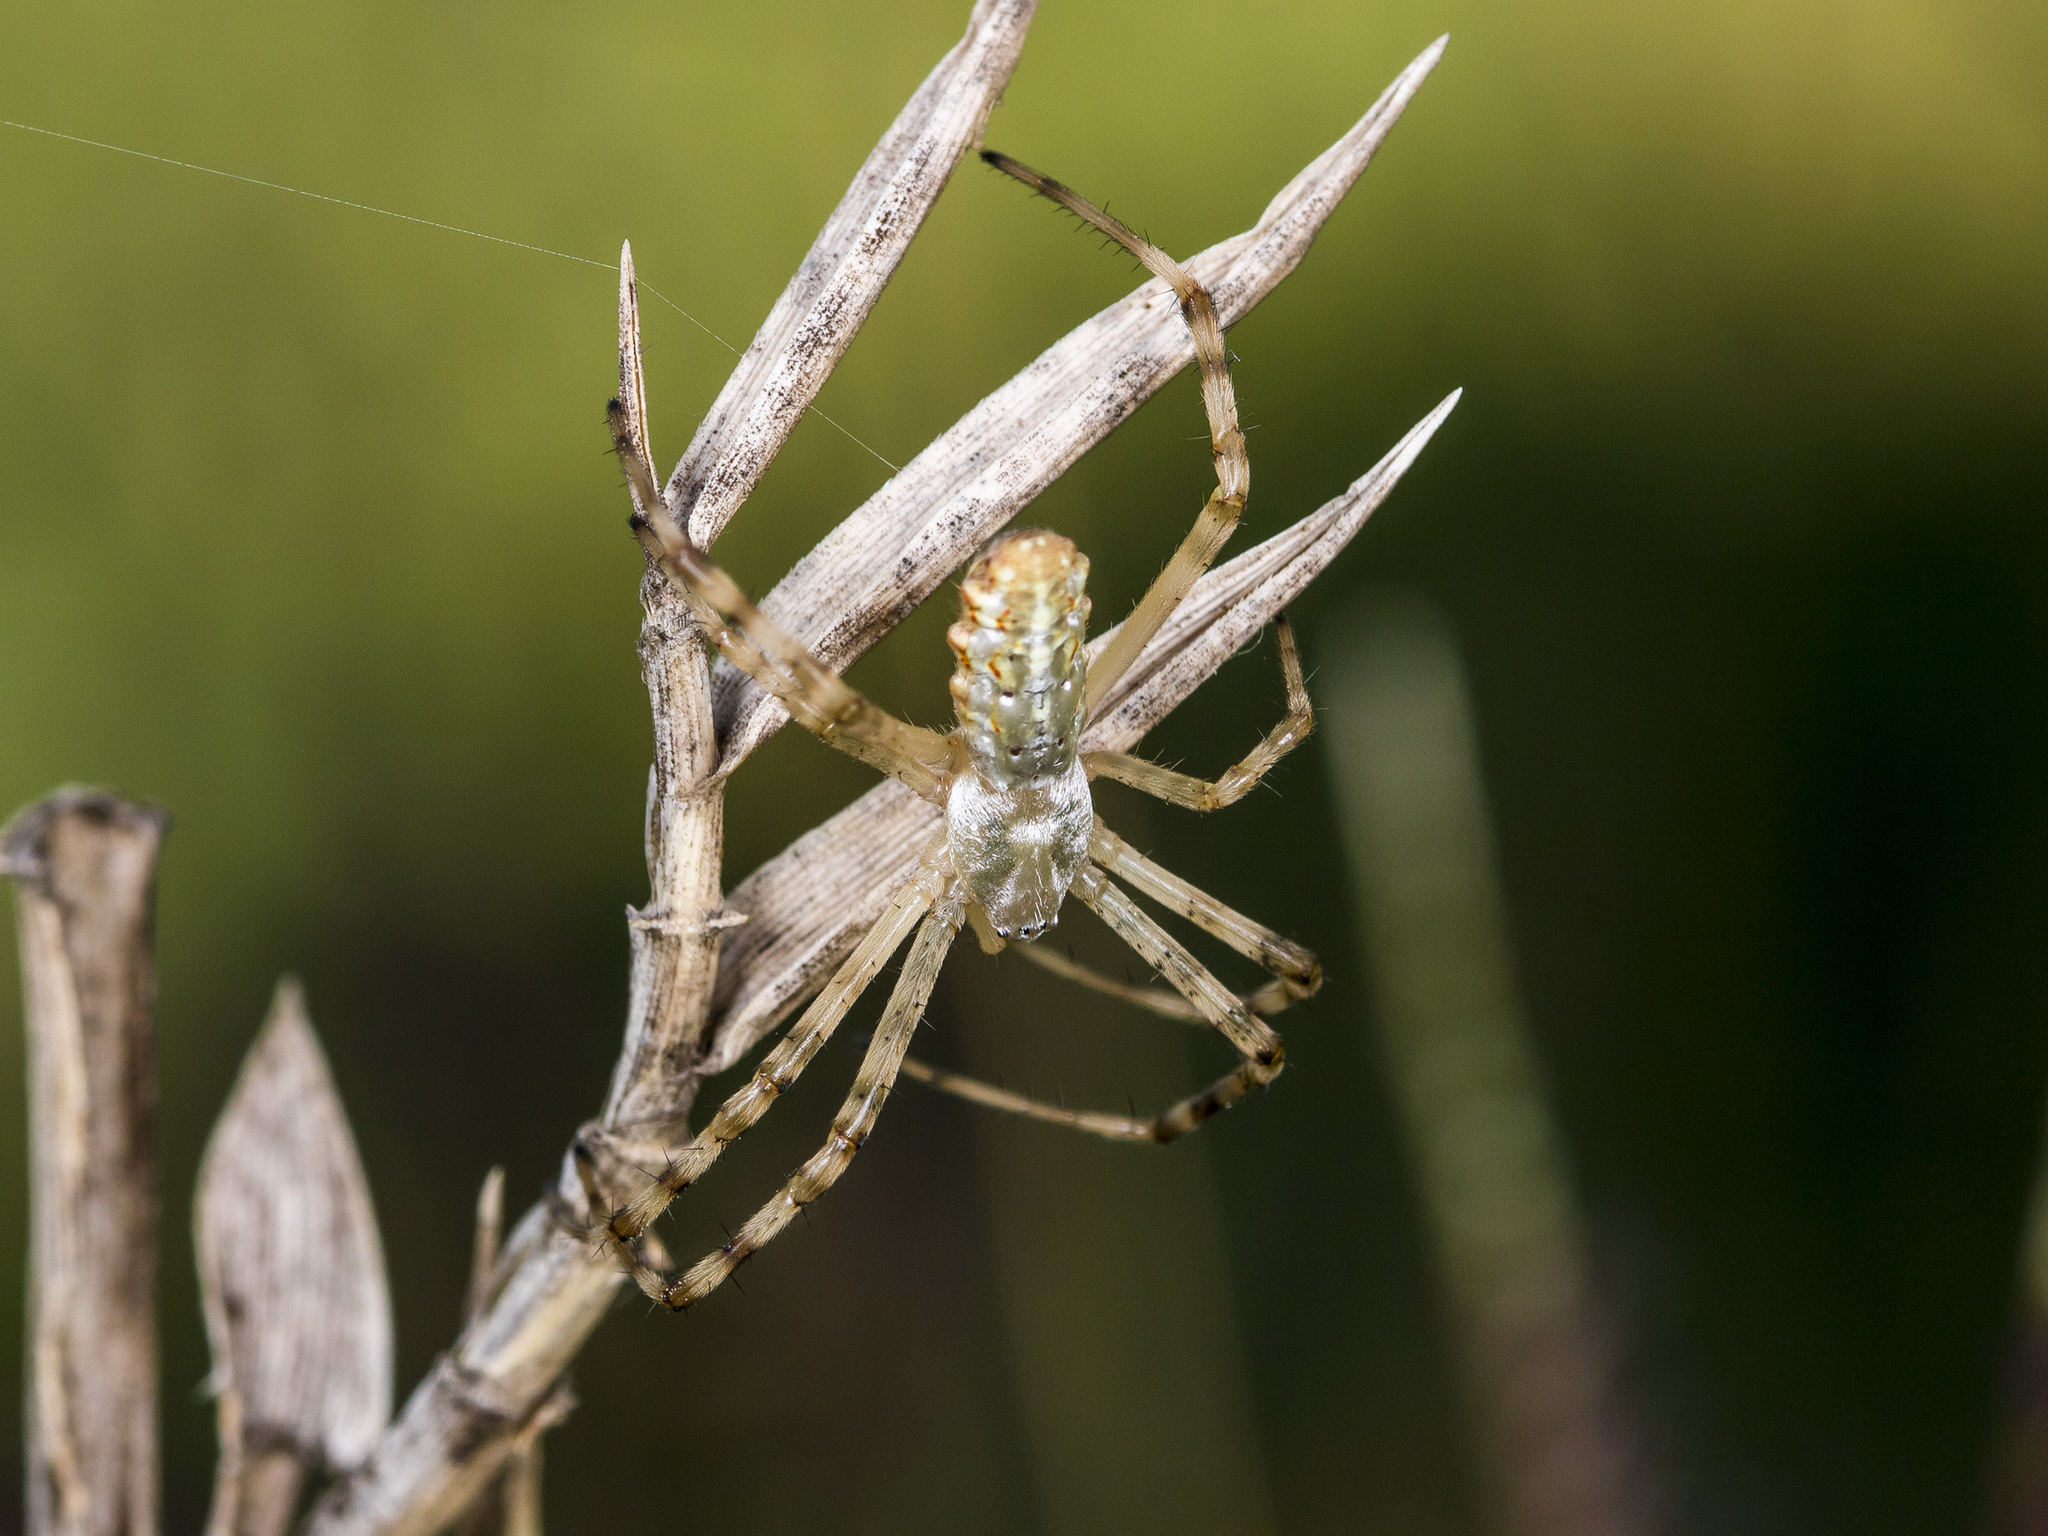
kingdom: Animalia
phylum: Arthropoda
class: Arachnida
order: Araneae
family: Araneidae
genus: Argiope
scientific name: Argiope lobata
